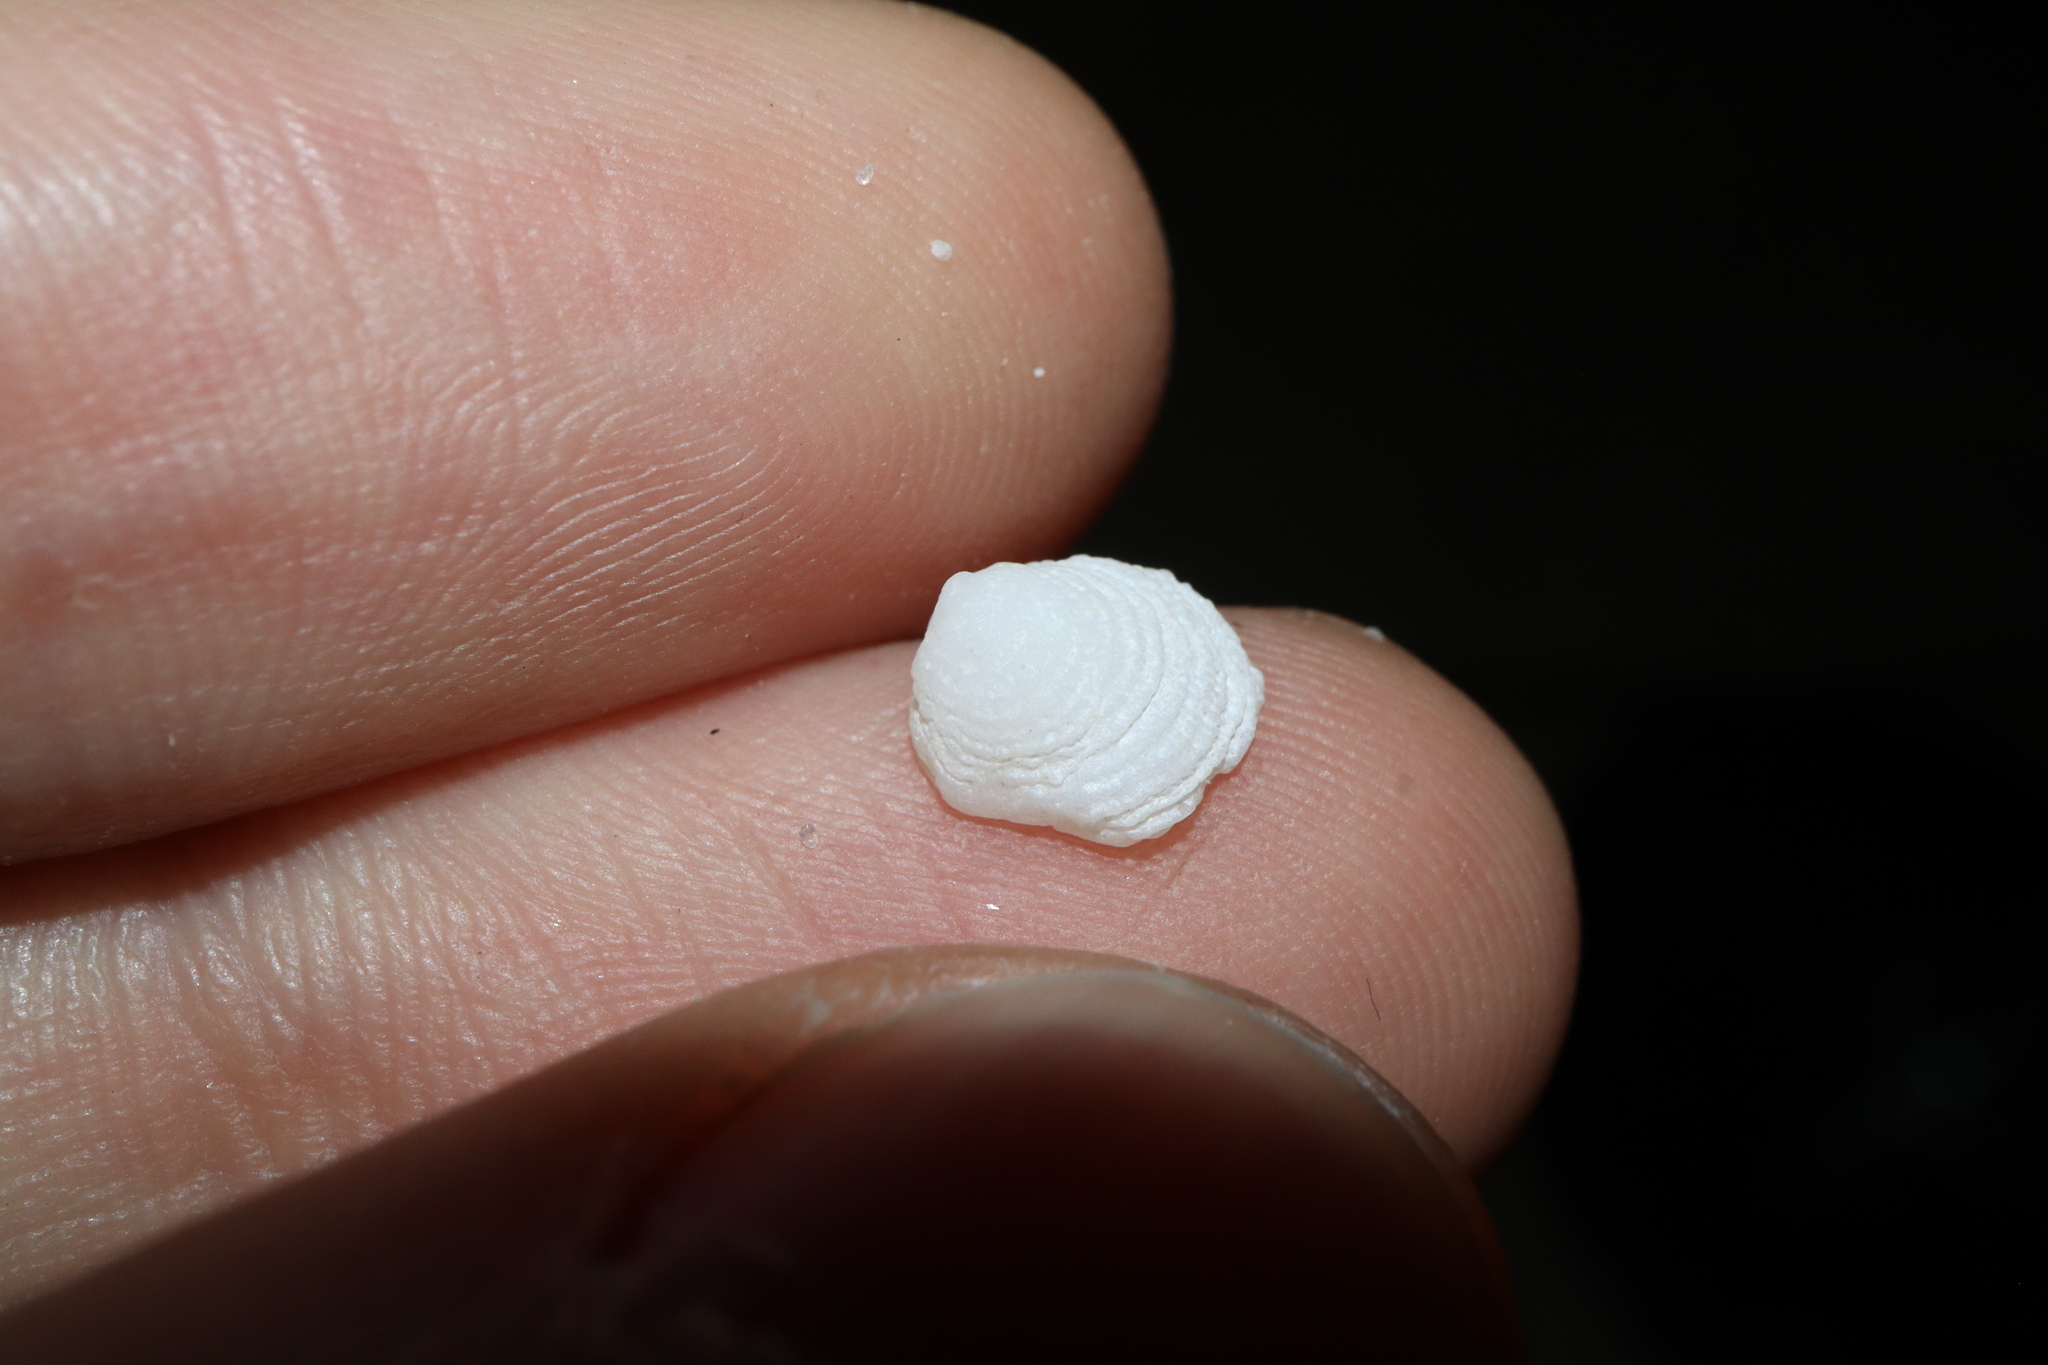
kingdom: Animalia
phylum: Mollusca
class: Gastropoda
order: Littorinimorpha
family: Hipponicidae
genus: Antisabia
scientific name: Antisabia foliacea
